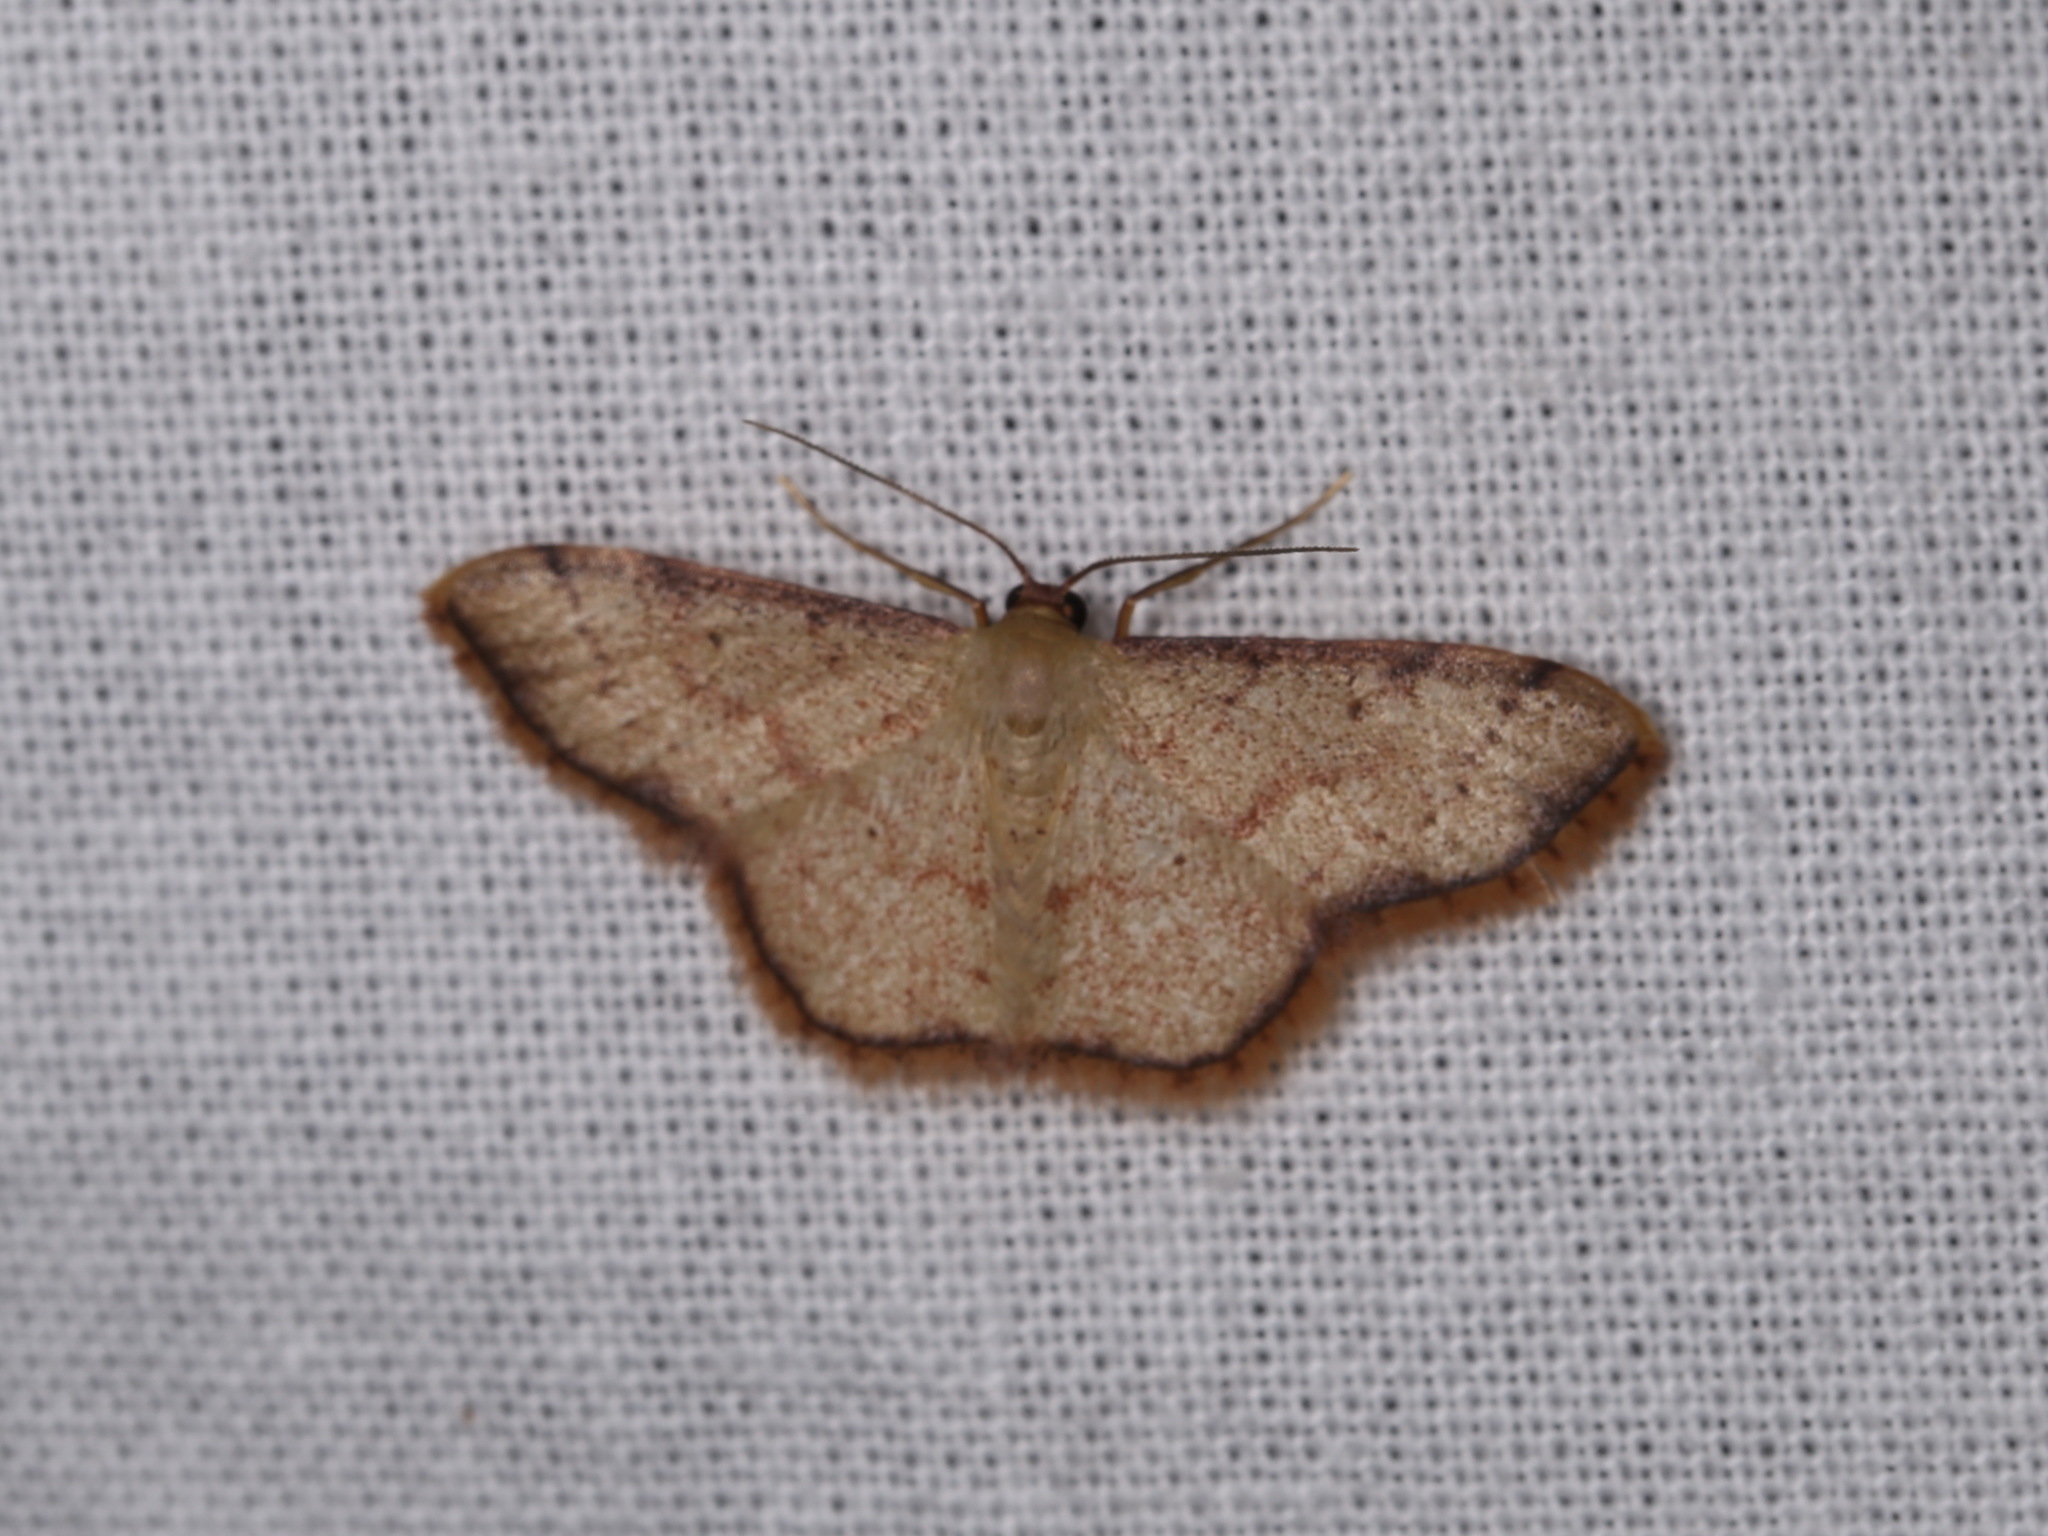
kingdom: Animalia
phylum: Arthropoda
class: Insecta
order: Lepidoptera
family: Geometridae
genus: Idaea
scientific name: Idaea craspedota
